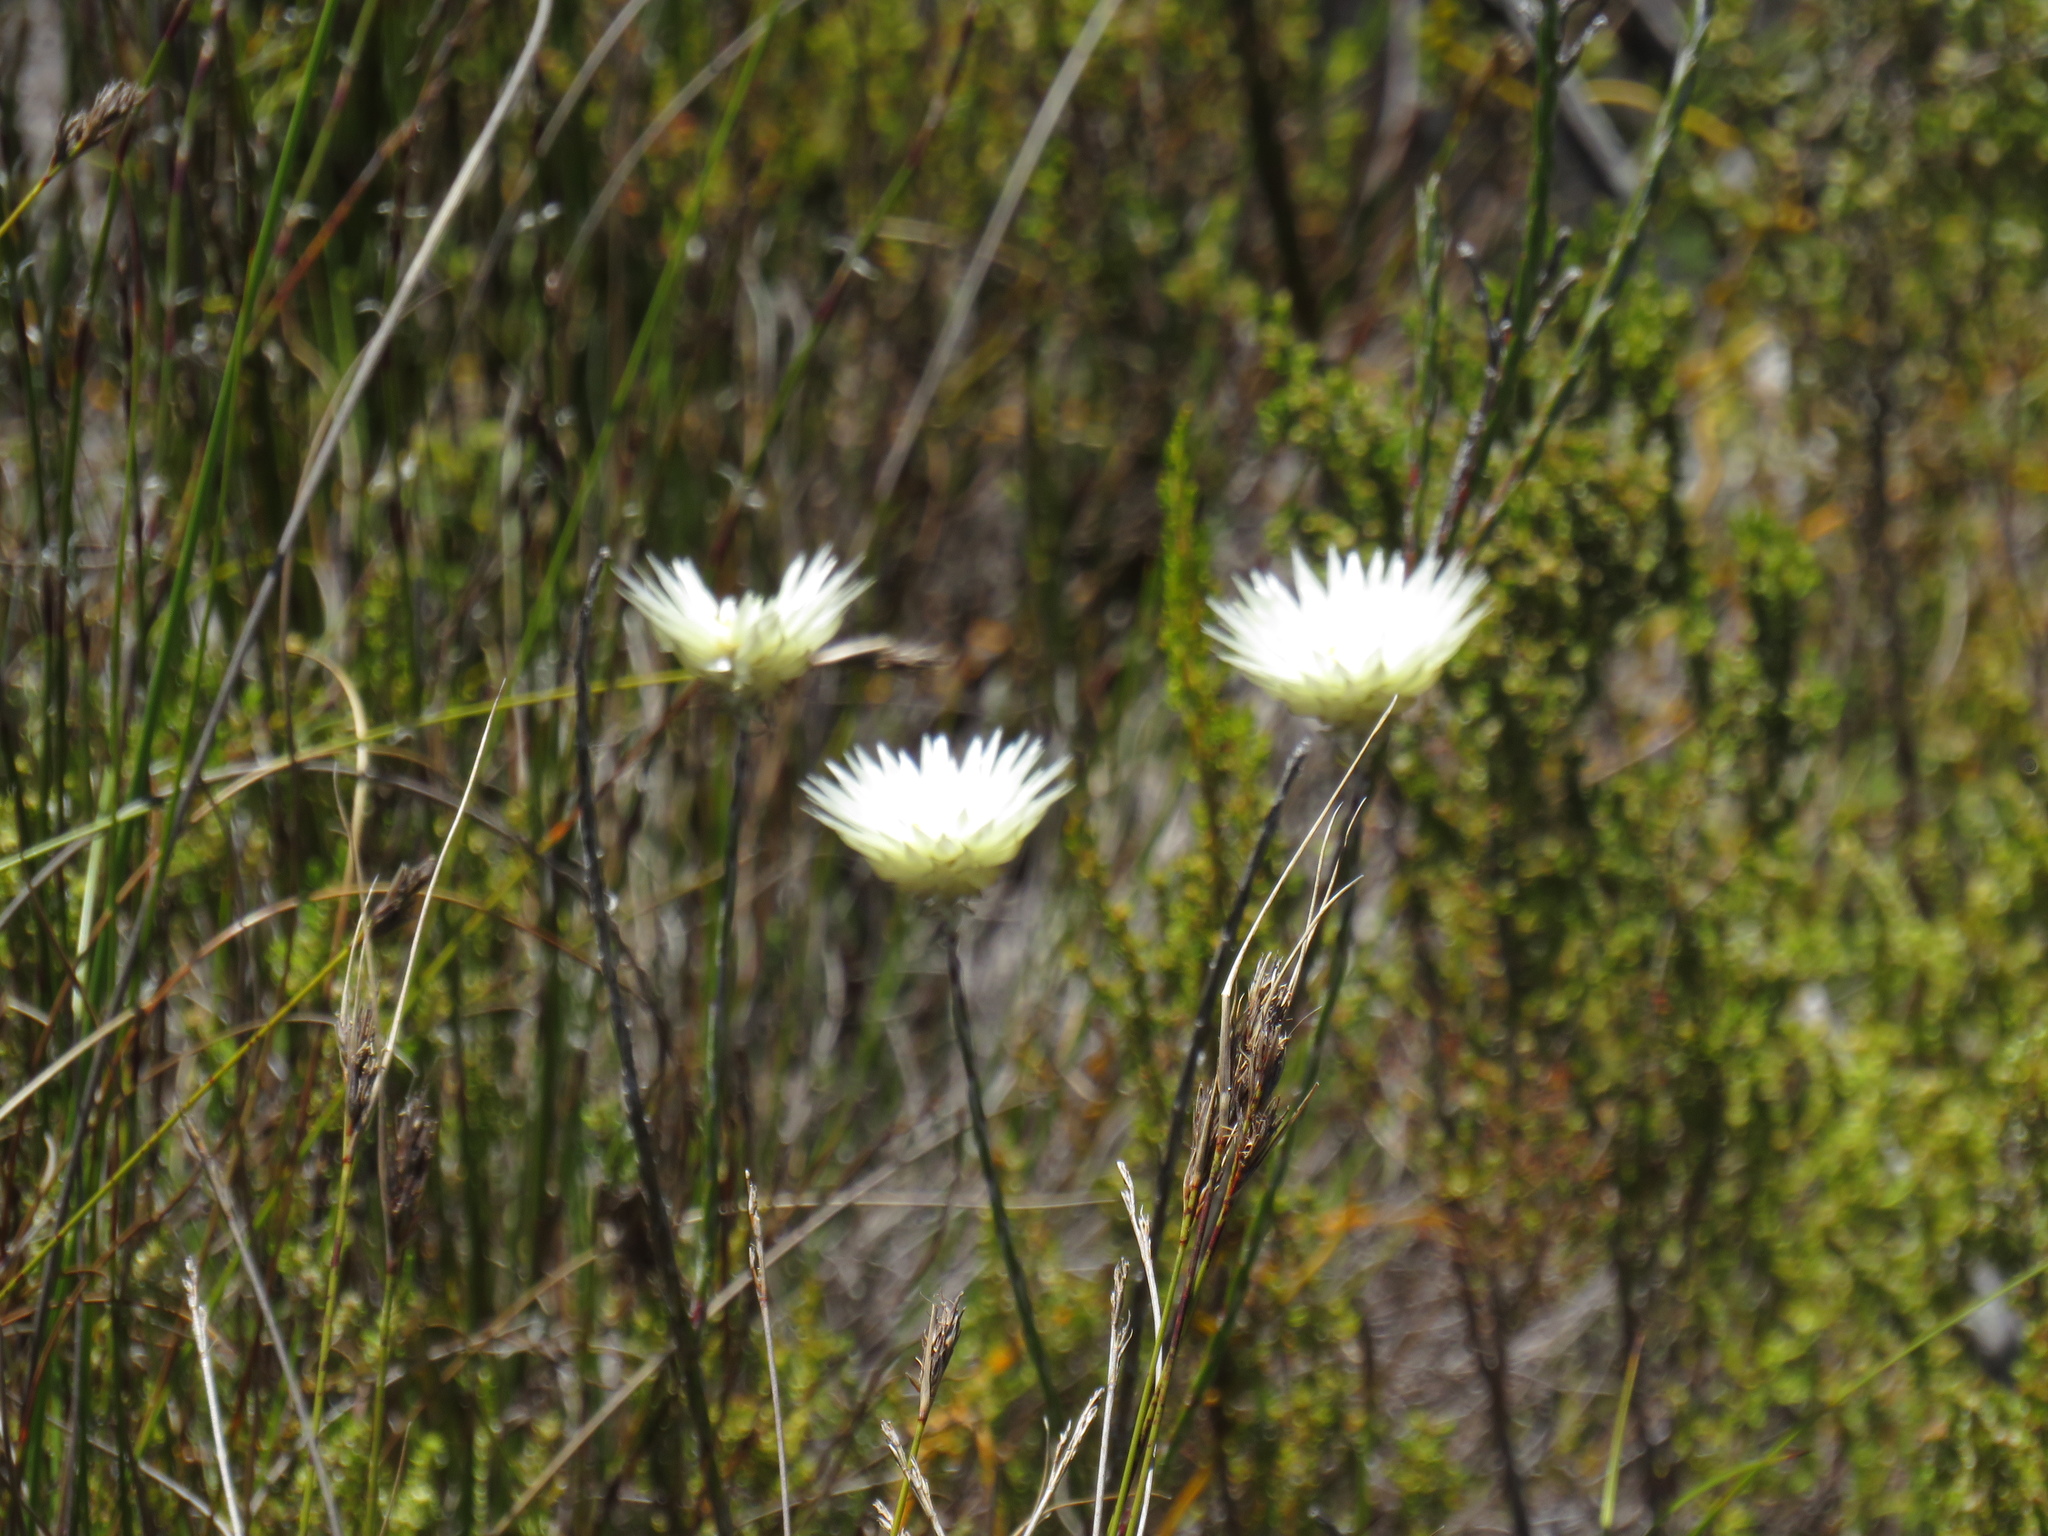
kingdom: Plantae
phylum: Tracheophyta
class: Magnoliopsida
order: Asterales
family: Asteraceae
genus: Edmondia
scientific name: Edmondia sesamoides
